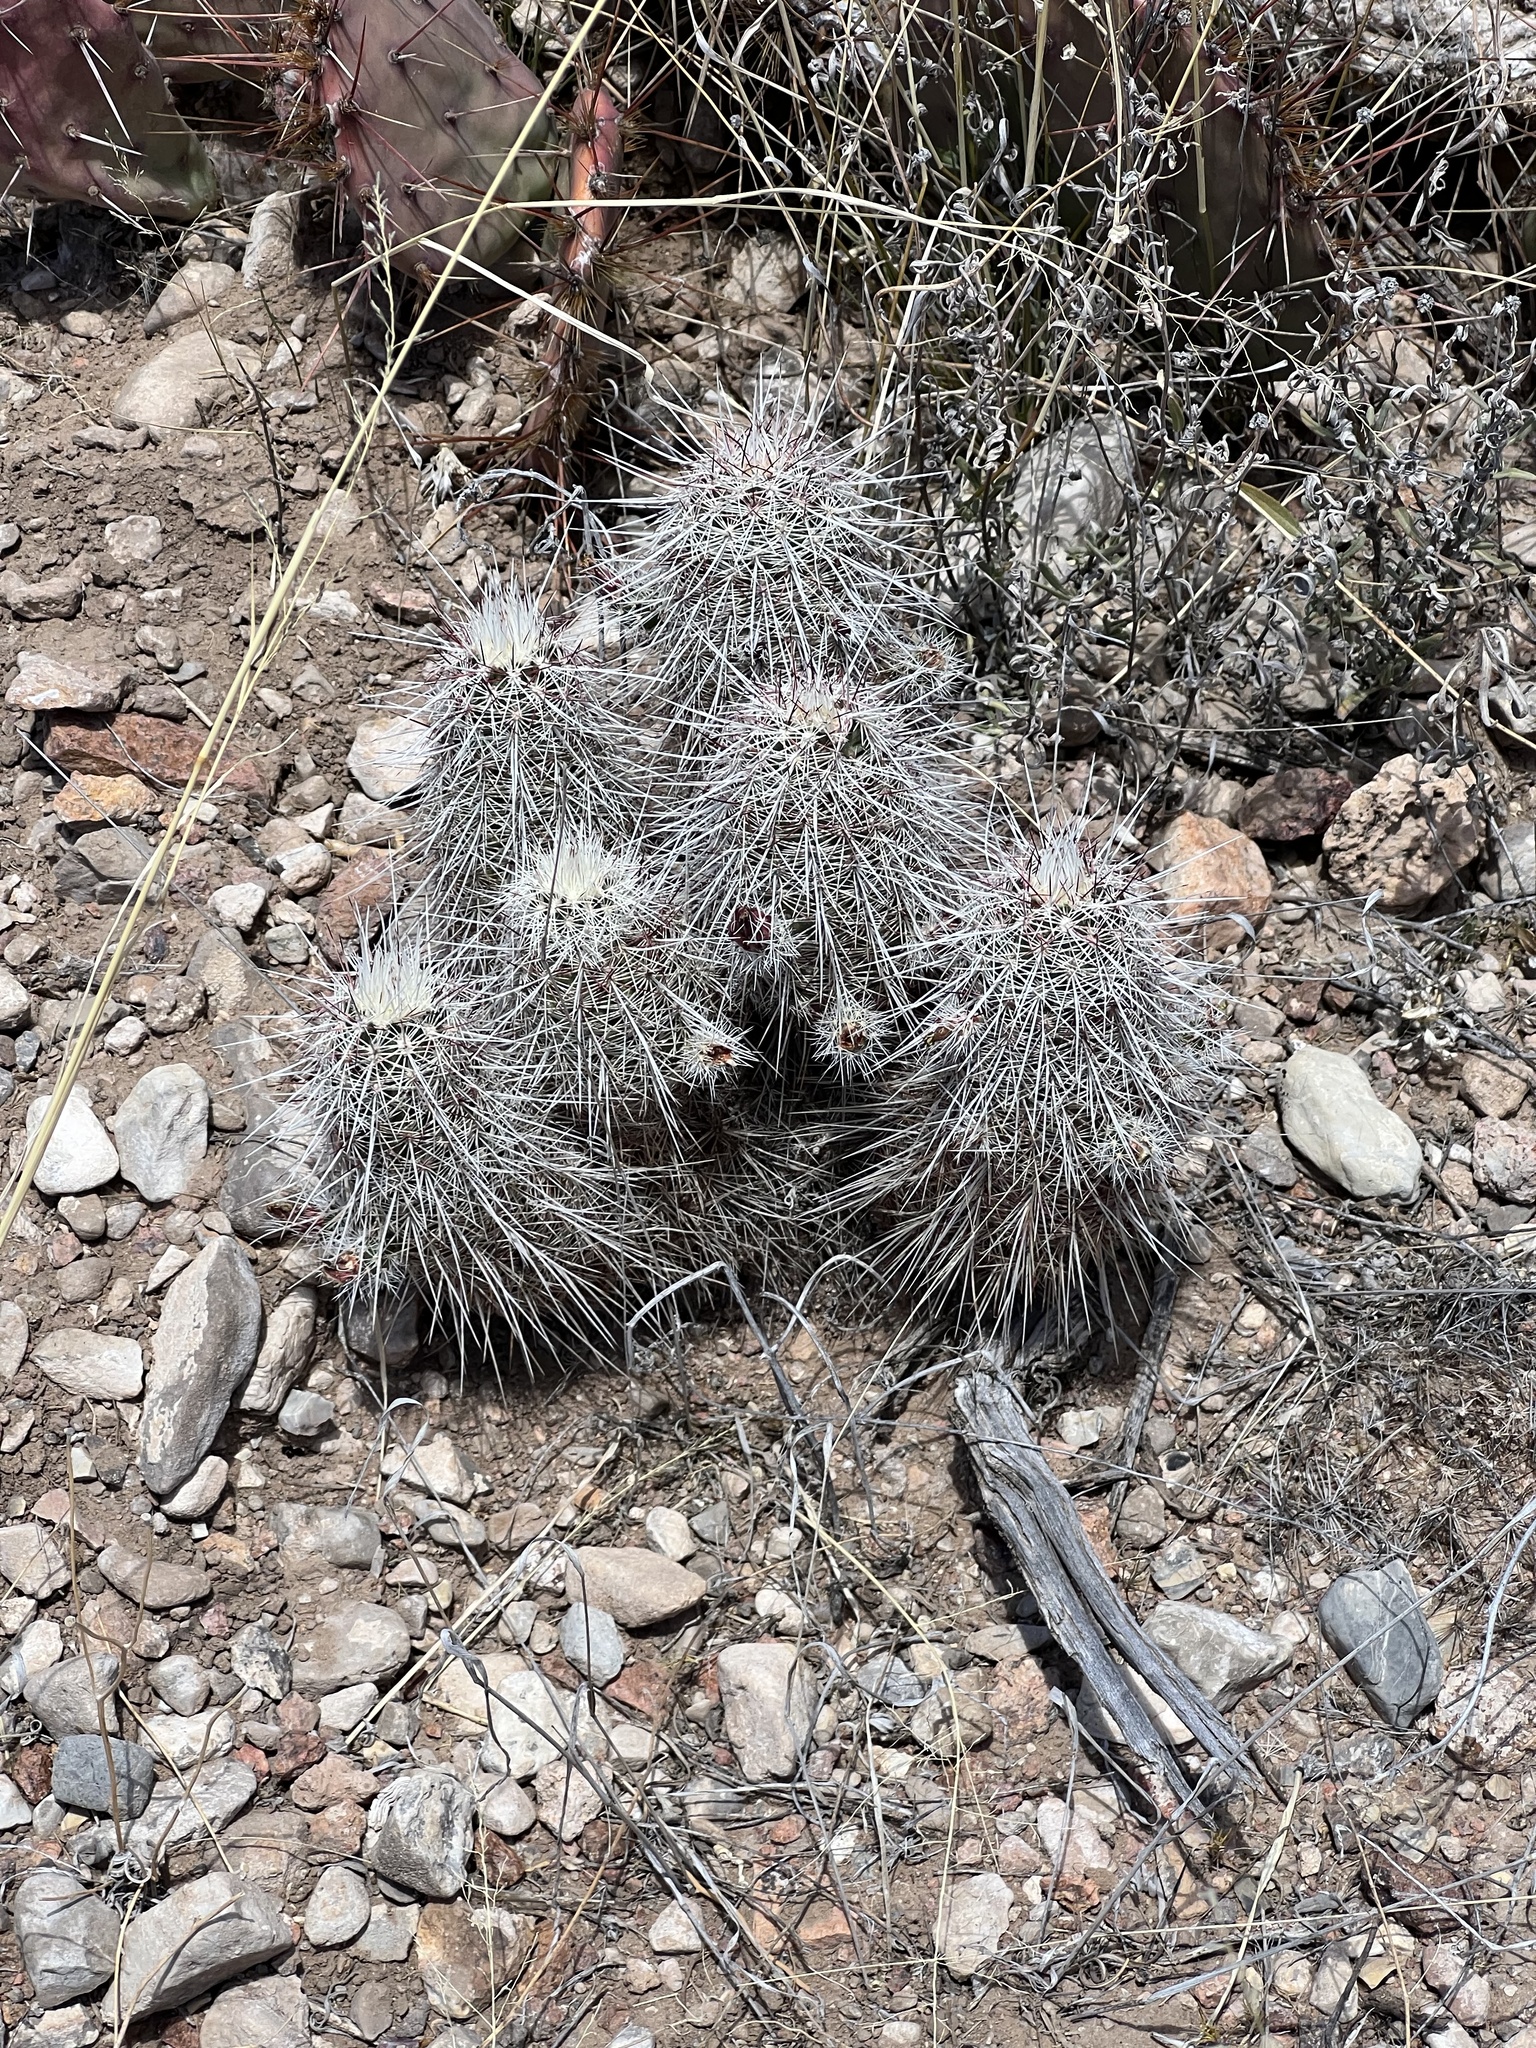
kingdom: Plantae
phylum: Tracheophyta
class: Magnoliopsida
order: Caryophyllales
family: Cactaceae
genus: Echinocereus
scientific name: Echinocereus viridiflorus
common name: Nylon hedgehog cactus
